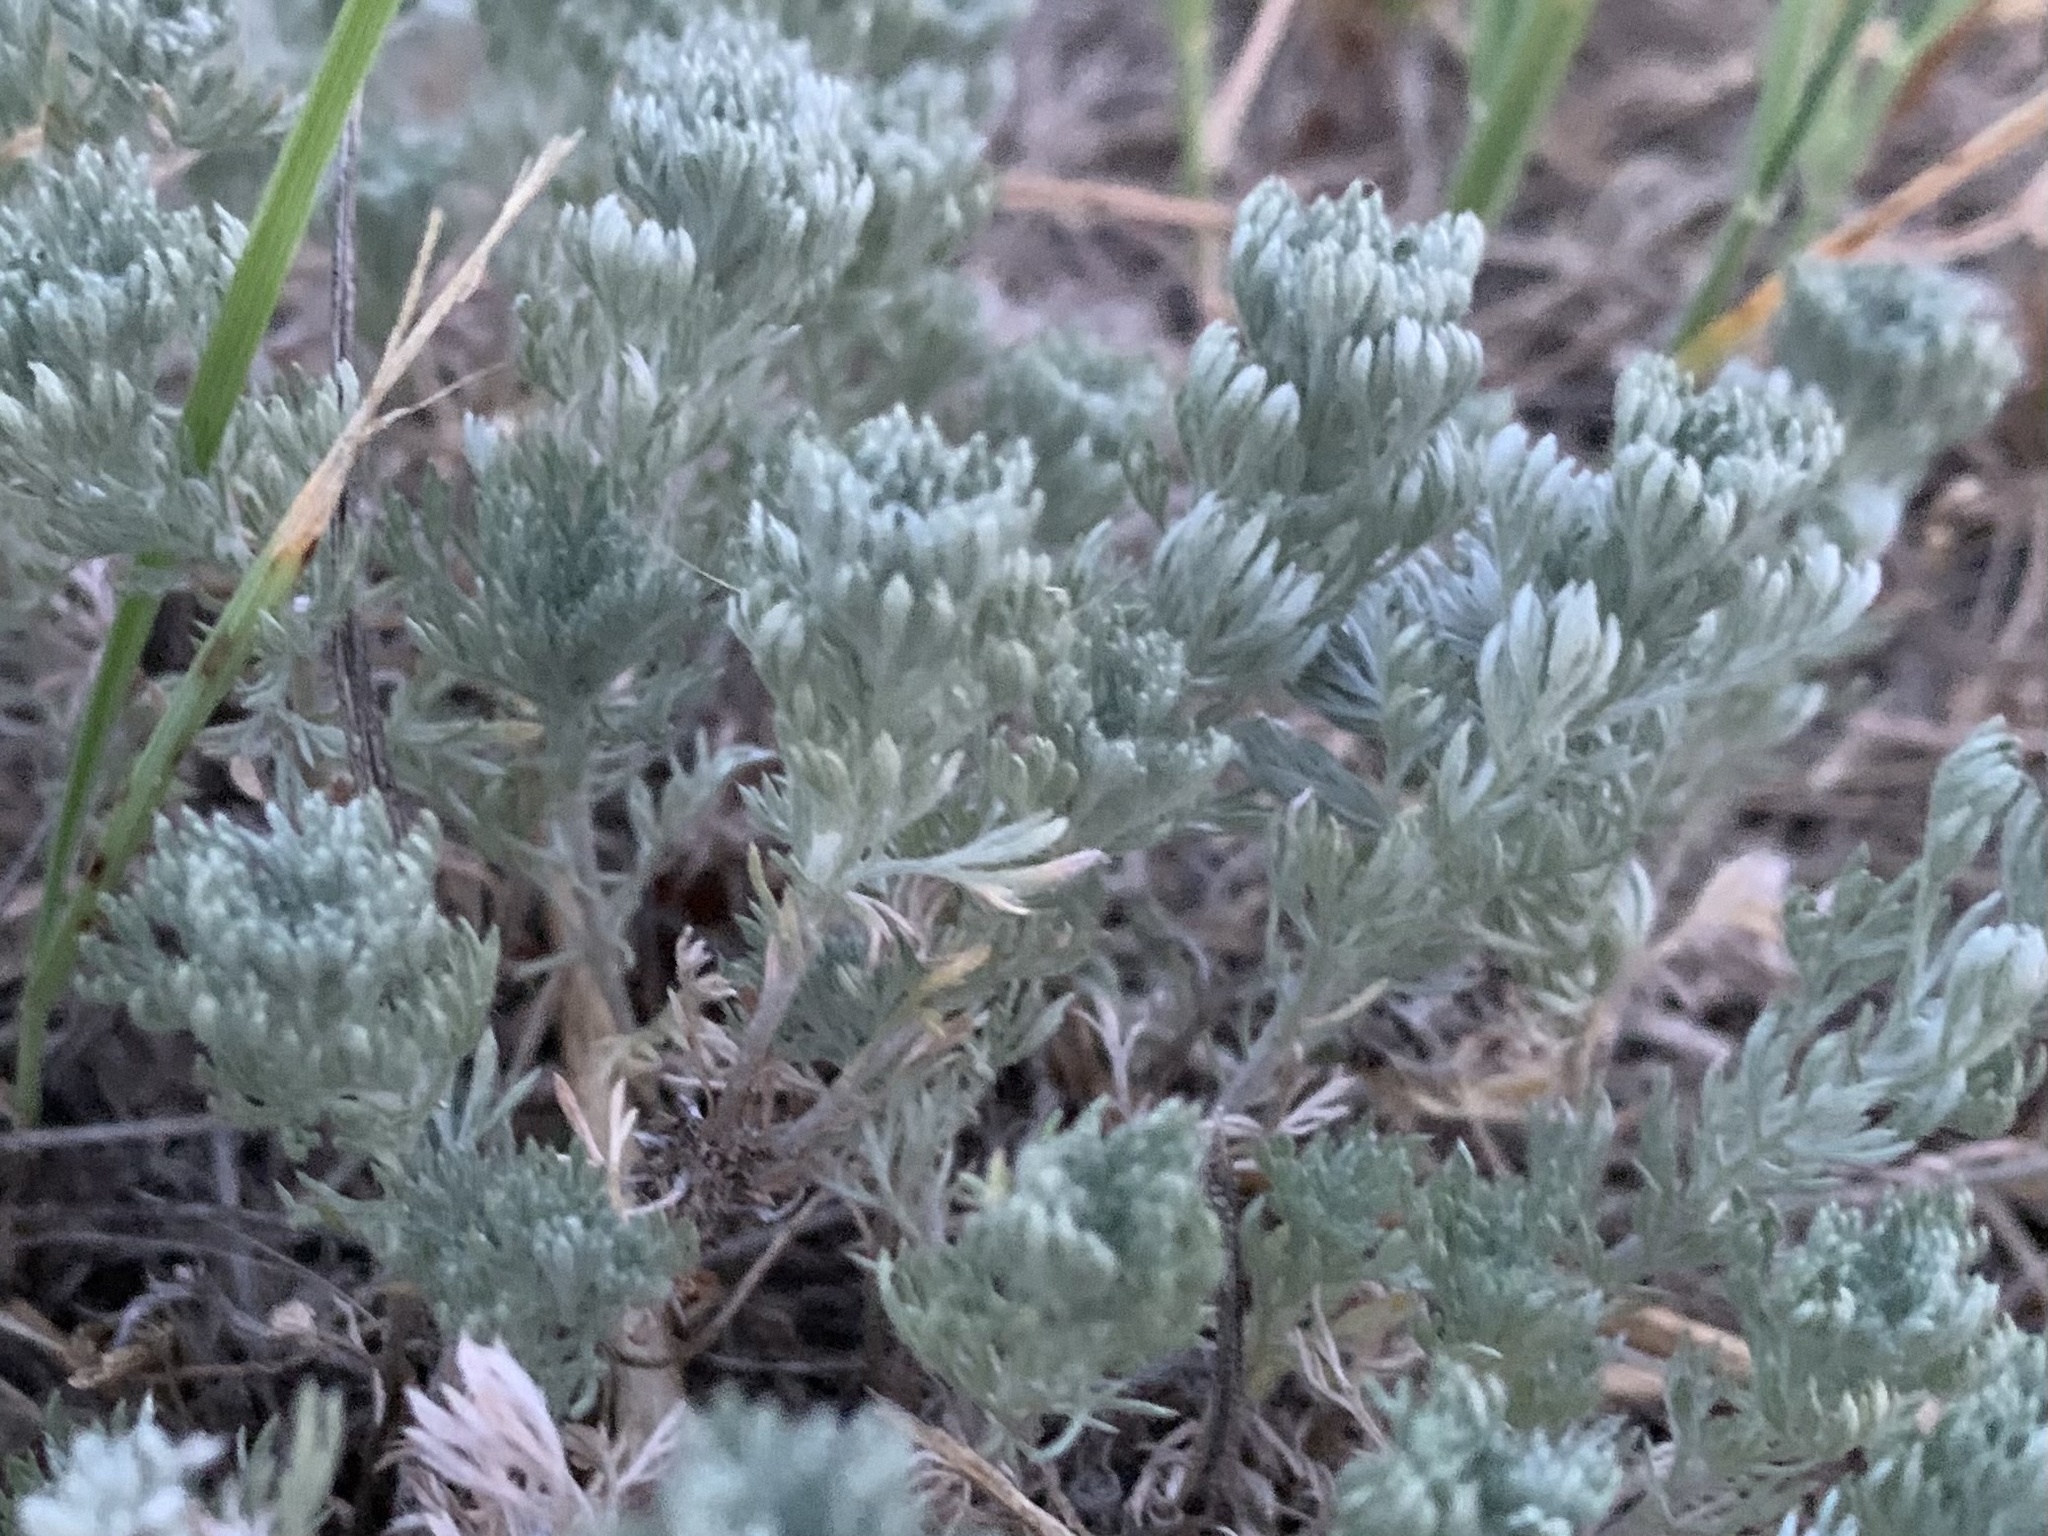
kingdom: Plantae
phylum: Tracheophyta
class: Magnoliopsida
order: Asterales
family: Asteraceae
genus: Artemisia
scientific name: Artemisia frigida
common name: Prairie sagewort
